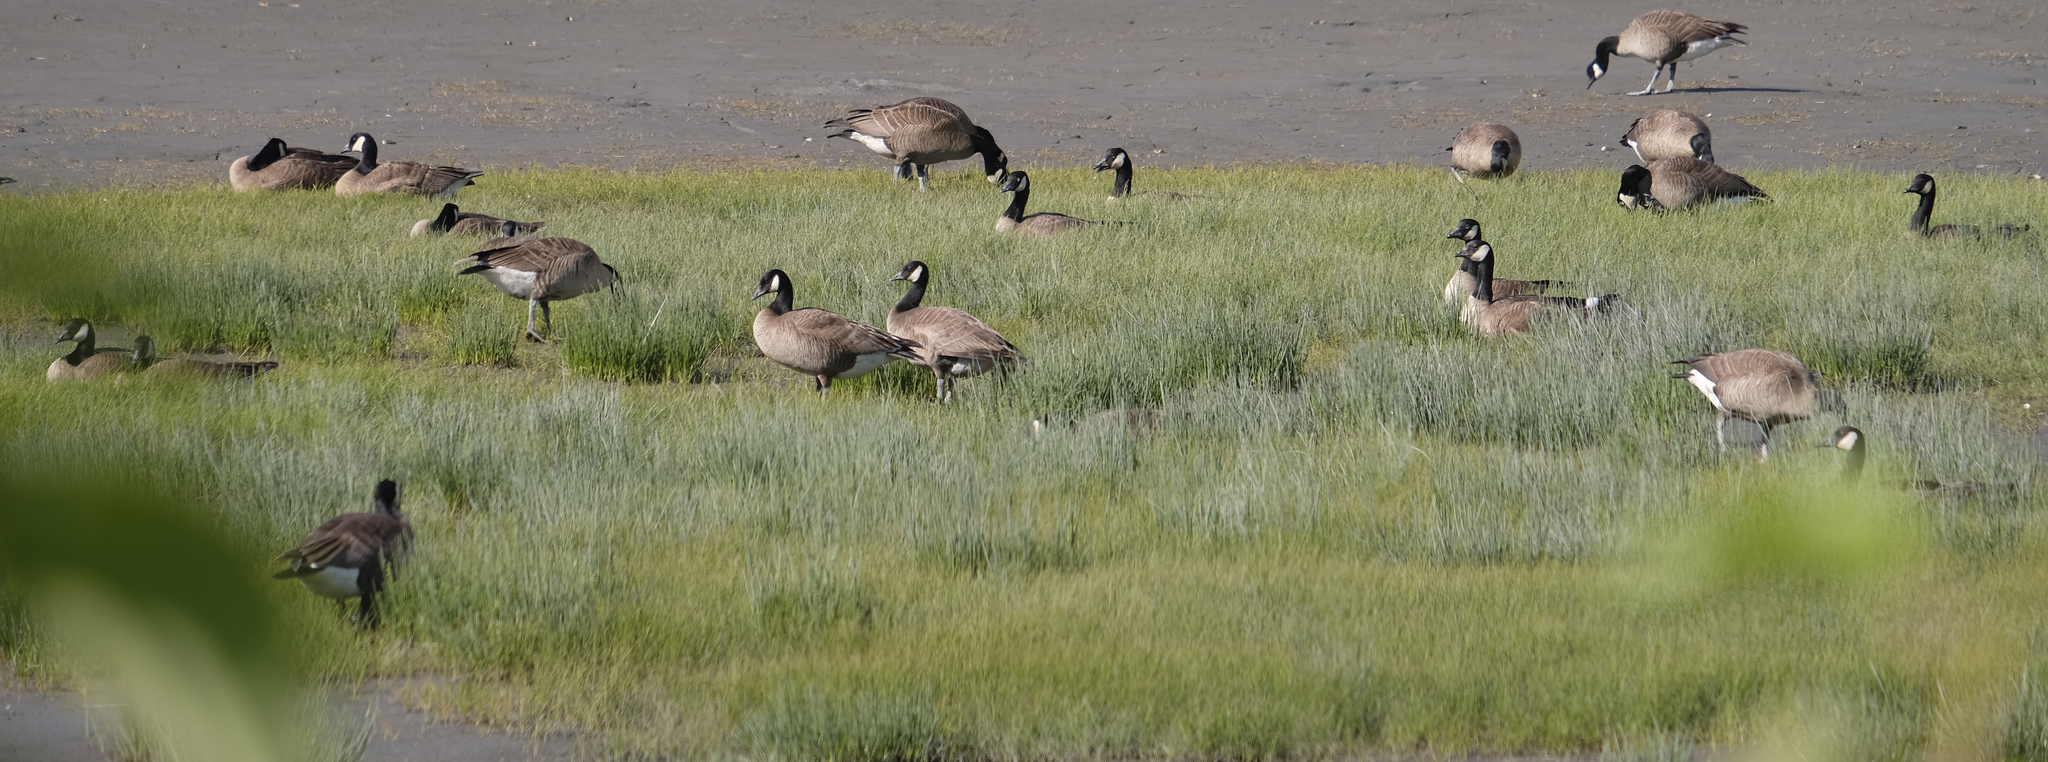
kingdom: Animalia
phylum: Chordata
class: Aves
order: Anseriformes
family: Anatidae
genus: Branta
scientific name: Branta canadensis
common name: Canada goose
